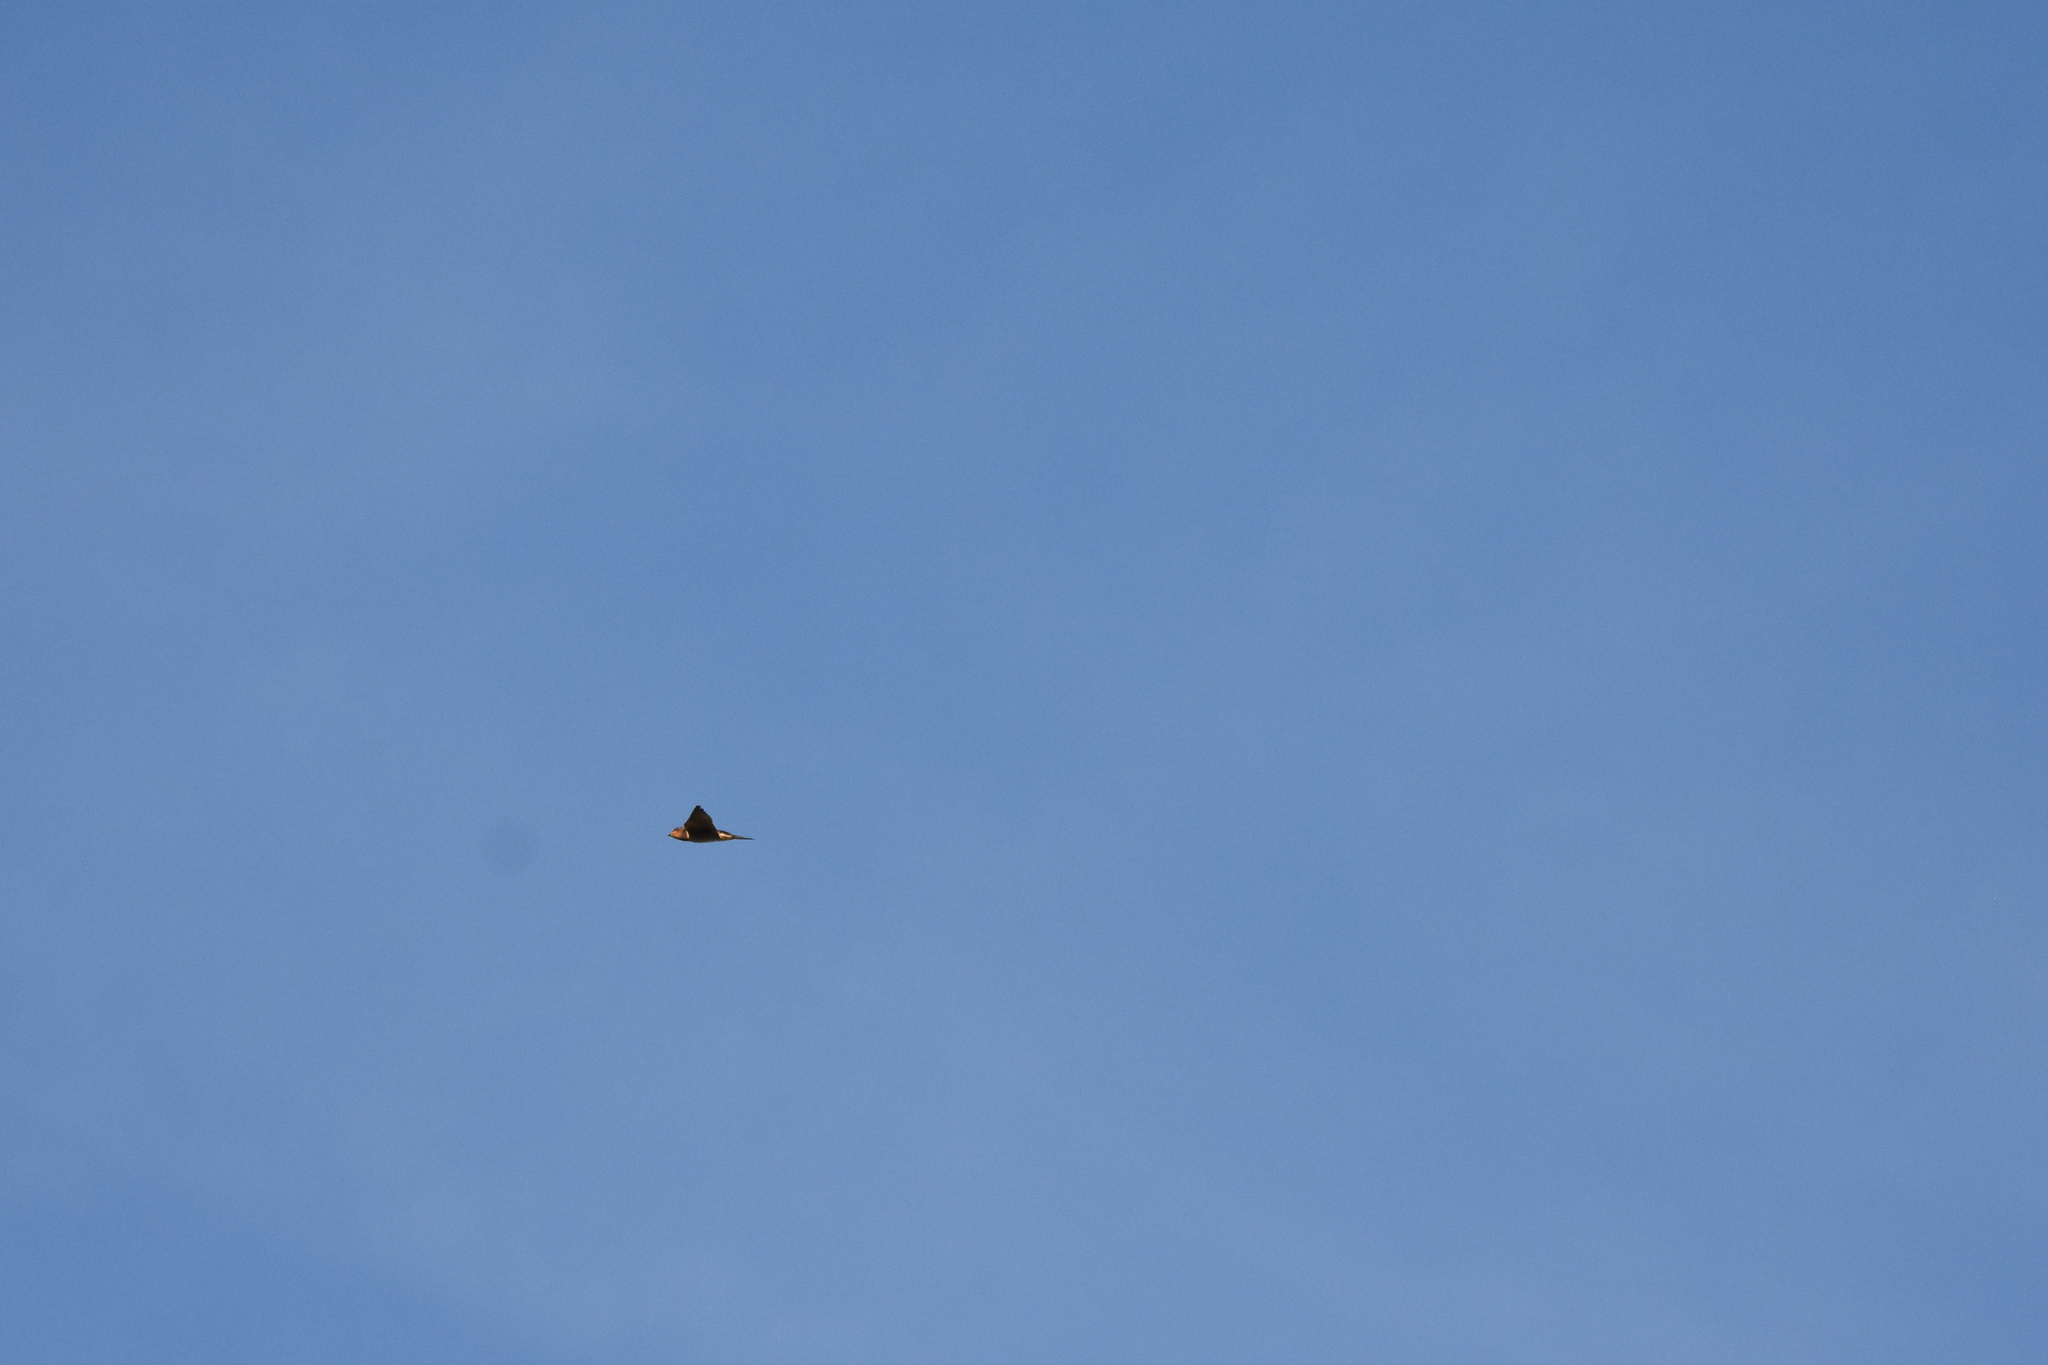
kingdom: Animalia
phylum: Chordata
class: Aves
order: Passeriformes
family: Hirundinidae
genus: Hirundo
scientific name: Hirundo rustica
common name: Barn swallow
